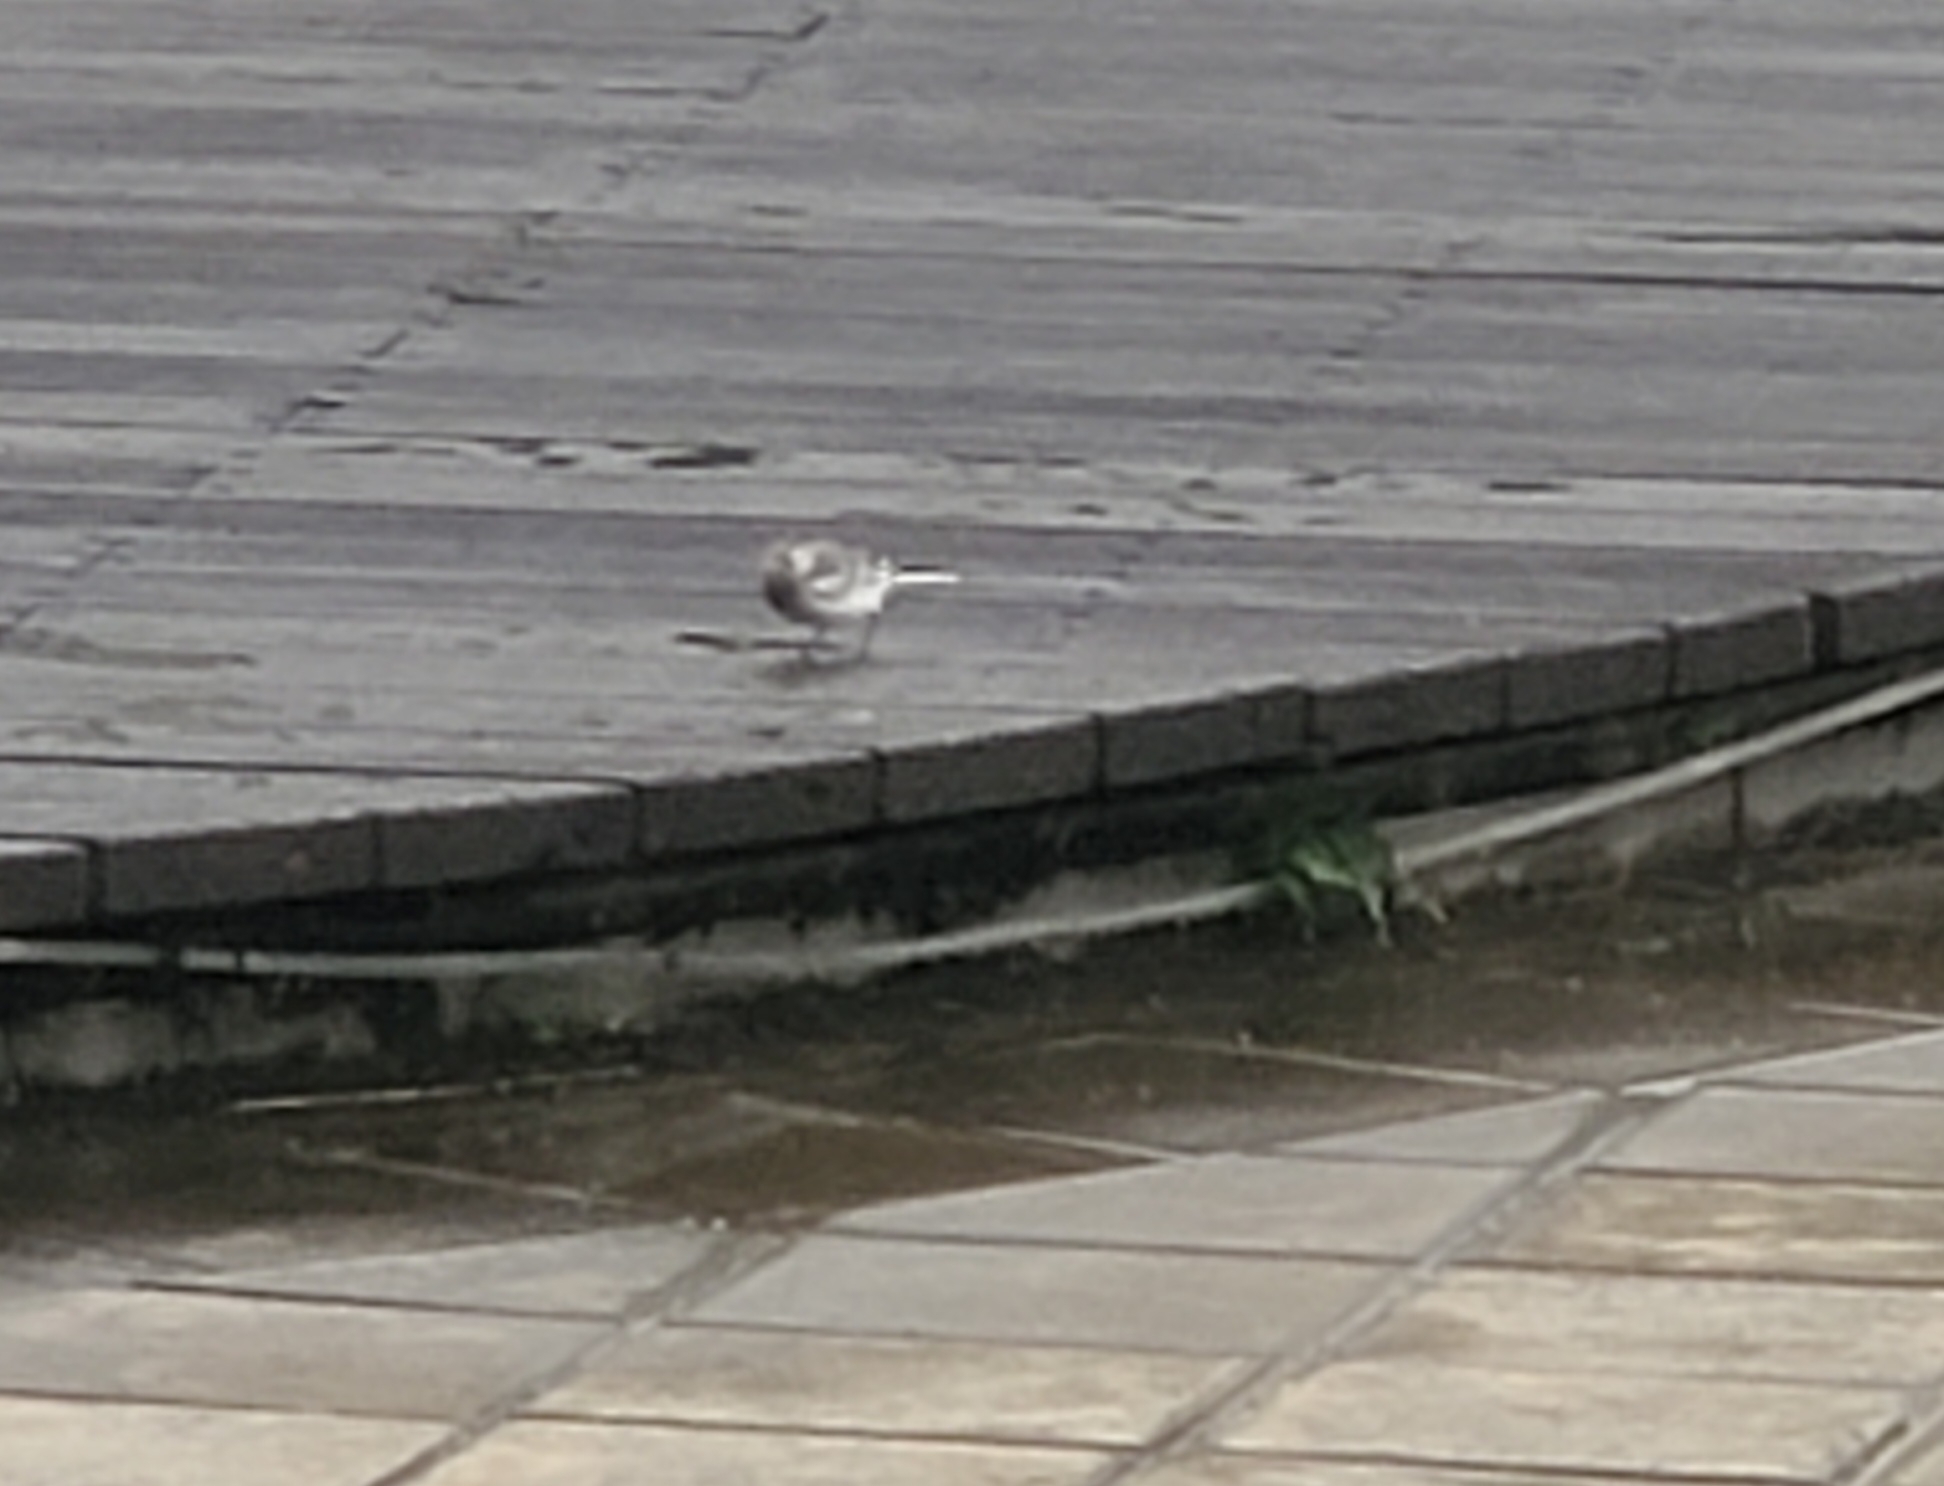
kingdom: Animalia
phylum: Chordata
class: Aves
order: Passeriformes
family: Motacillidae
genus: Motacilla
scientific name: Motacilla alba
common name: White wagtail
